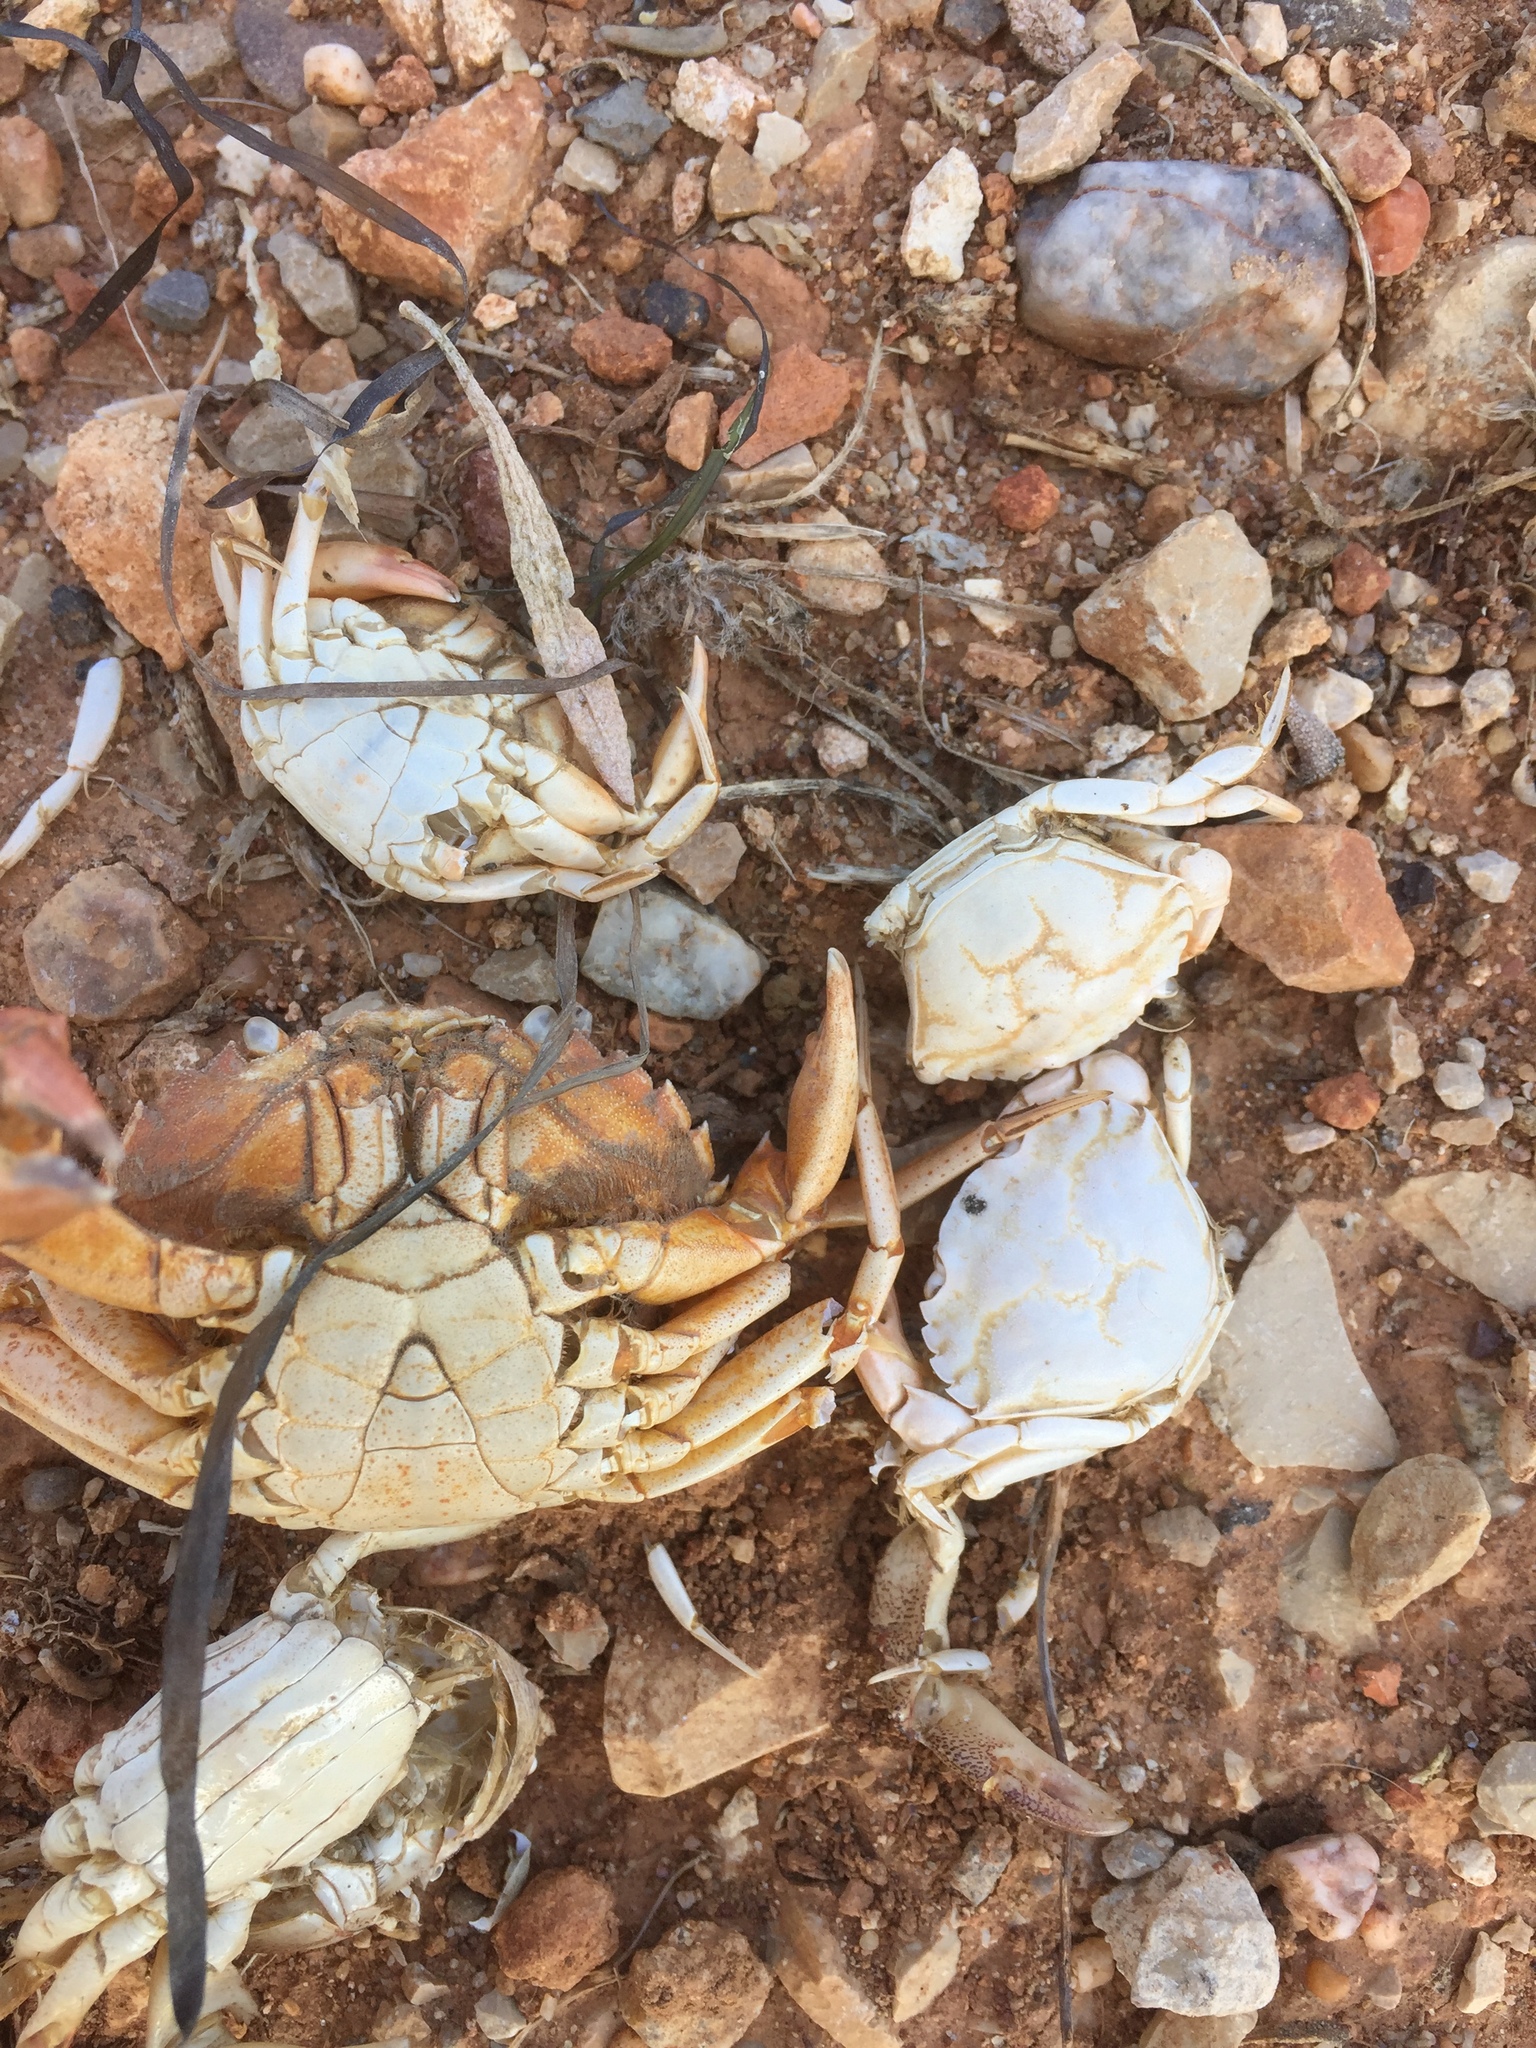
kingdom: Animalia
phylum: Arthropoda
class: Malacostraca
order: Decapoda
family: Carcinidae
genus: Carcinus
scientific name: Carcinus maenas
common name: European green crab
